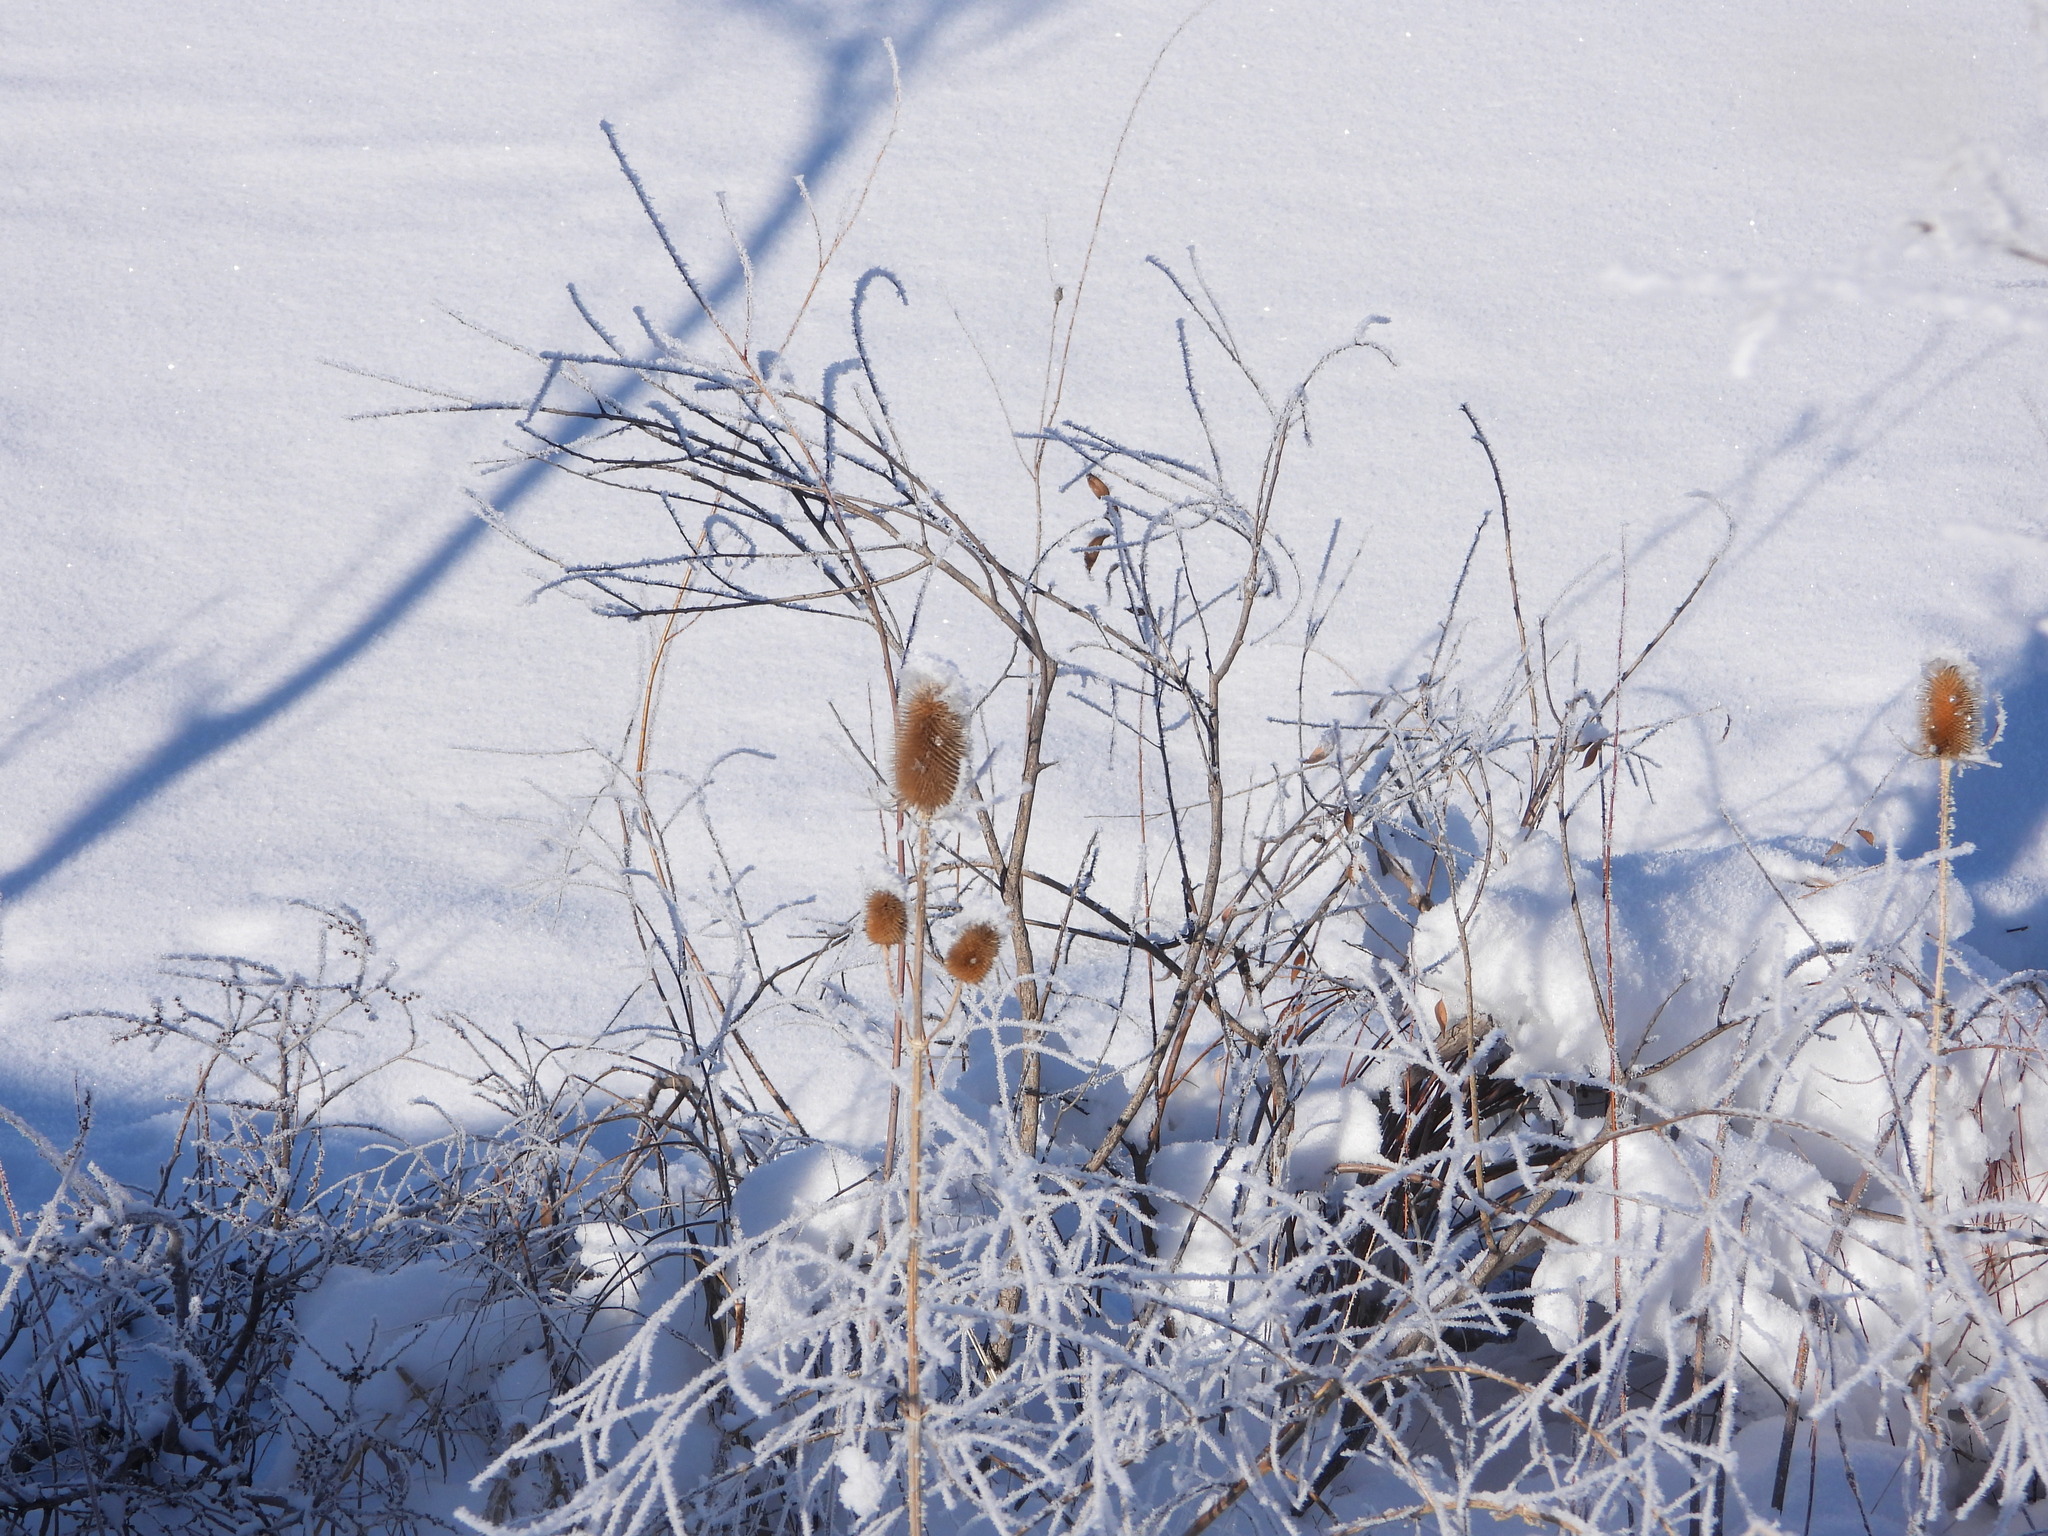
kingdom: Plantae
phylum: Tracheophyta
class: Magnoliopsida
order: Dipsacales
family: Caprifoliaceae
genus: Dipsacus
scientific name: Dipsacus fullonum
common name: Teasel
